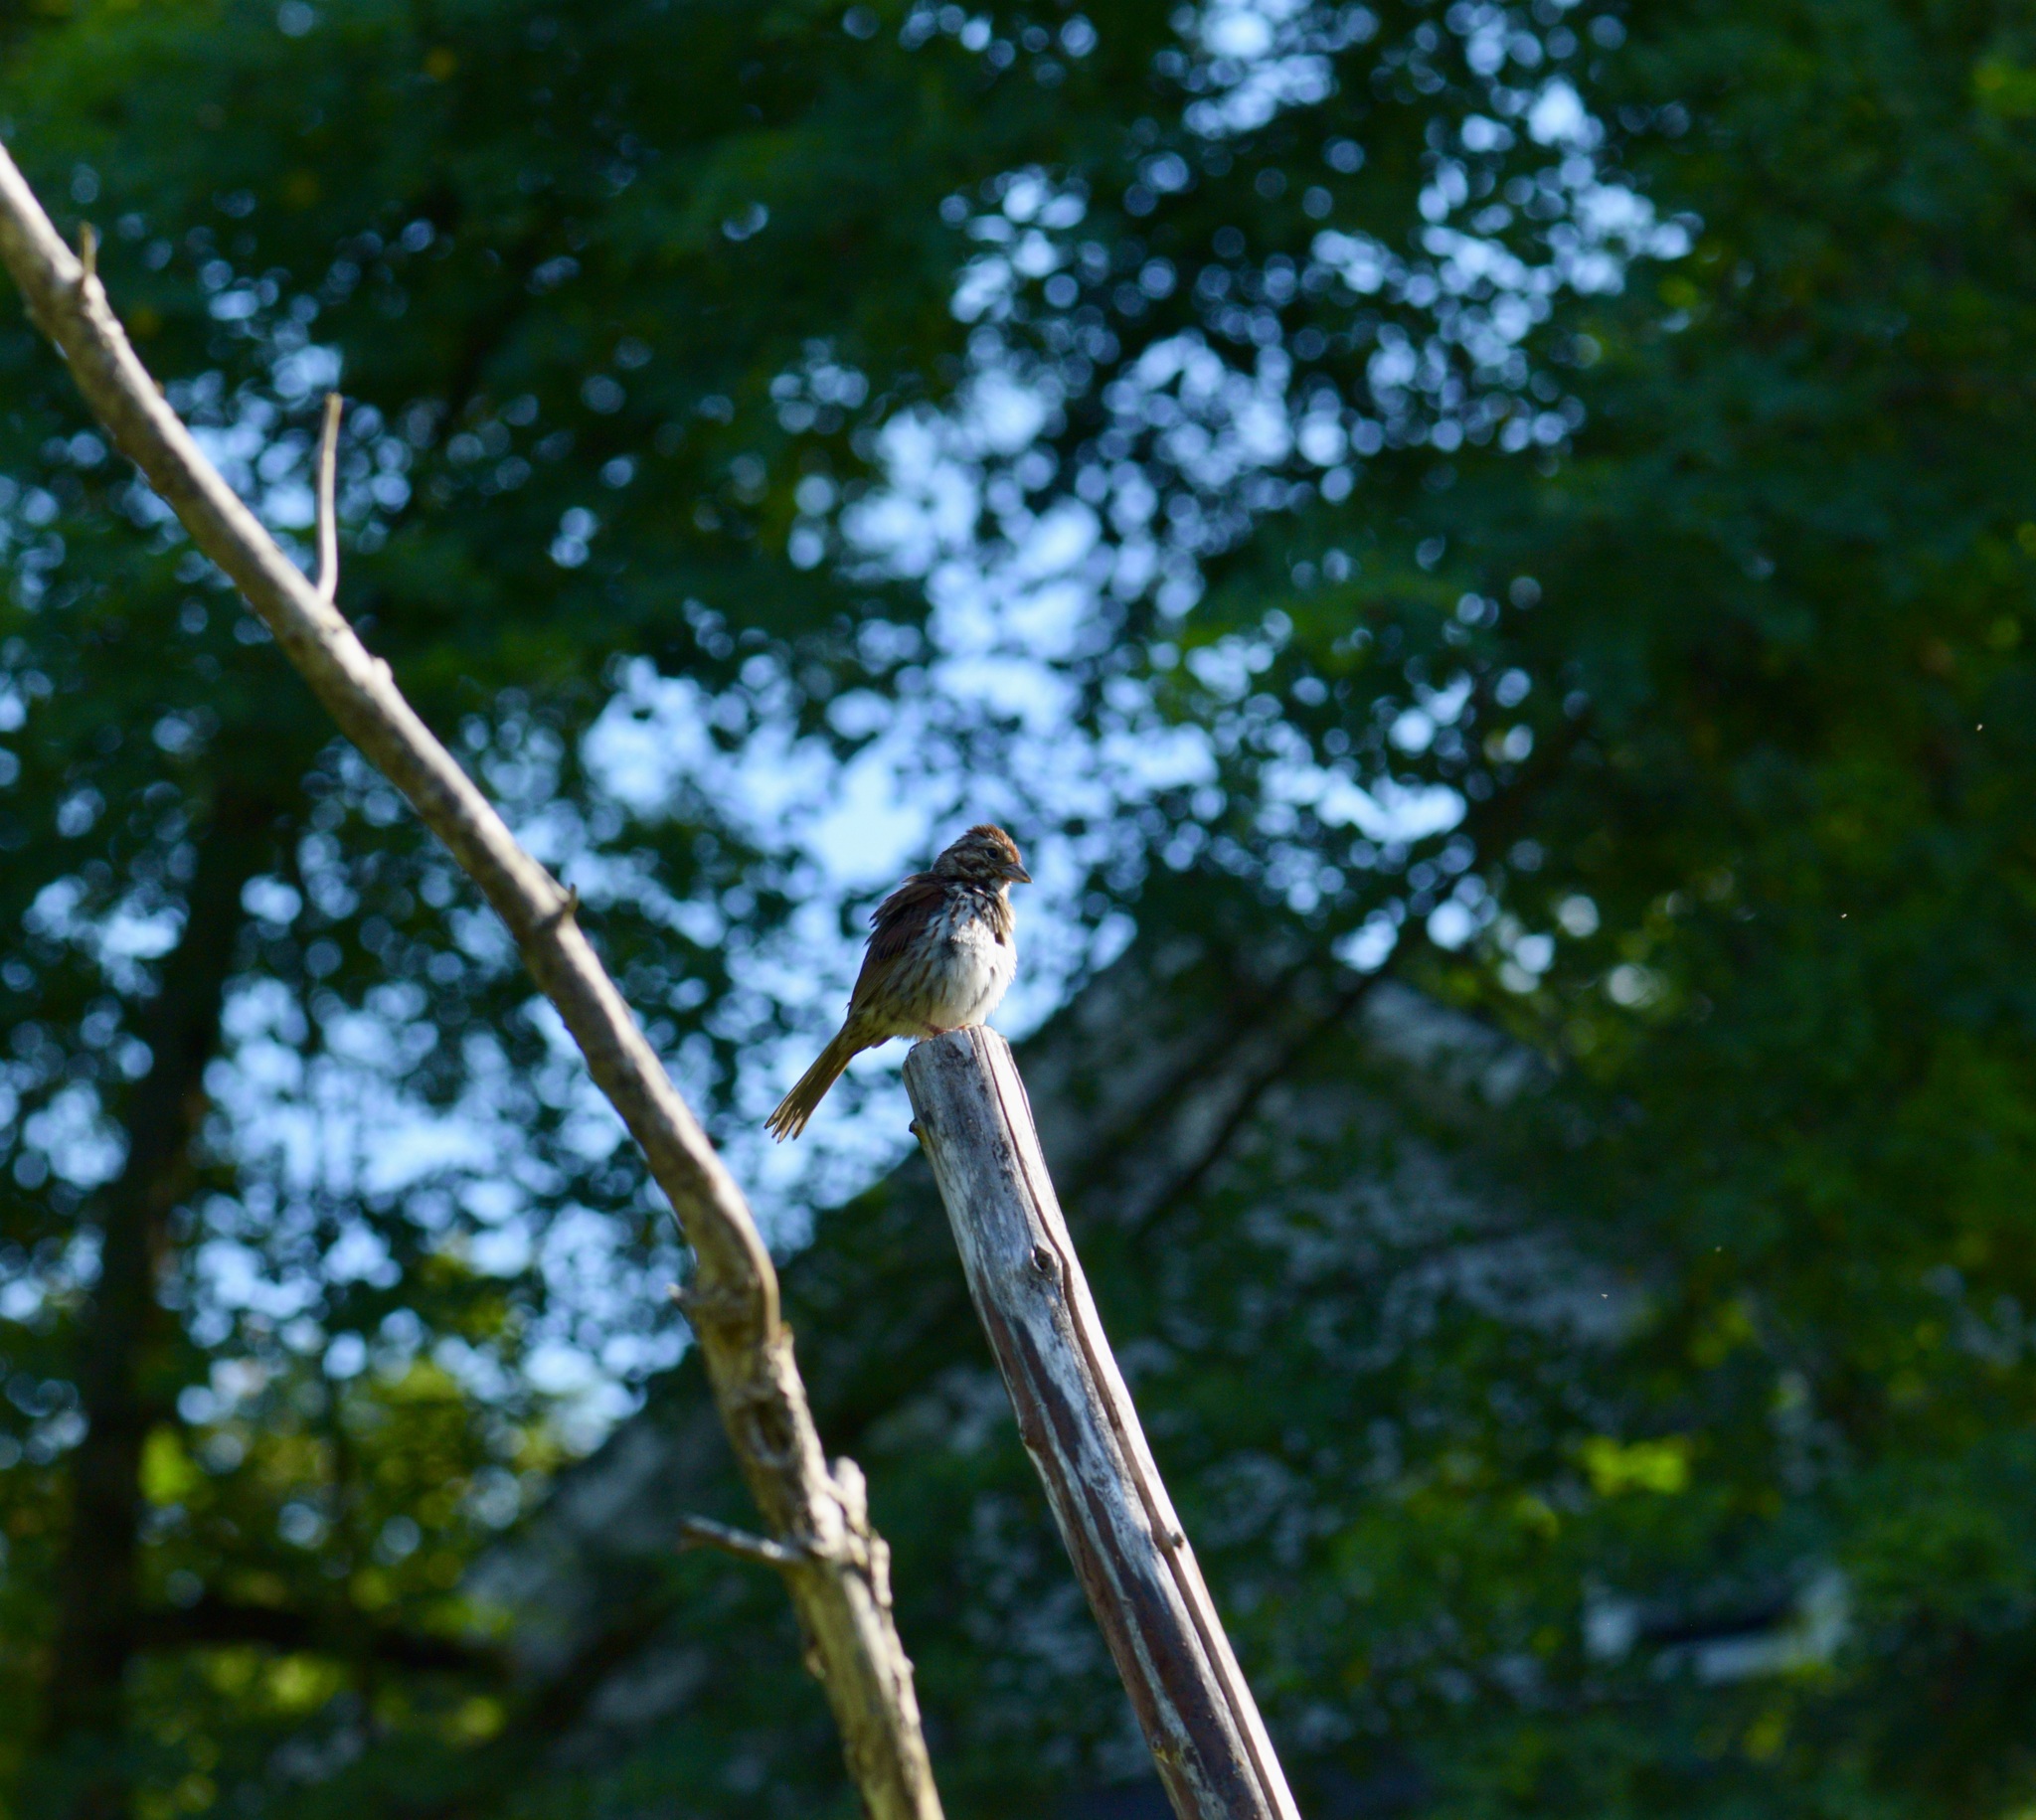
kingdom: Animalia
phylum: Chordata
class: Aves
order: Passeriformes
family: Passerellidae
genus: Melospiza
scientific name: Melospiza melodia
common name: Song sparrow
